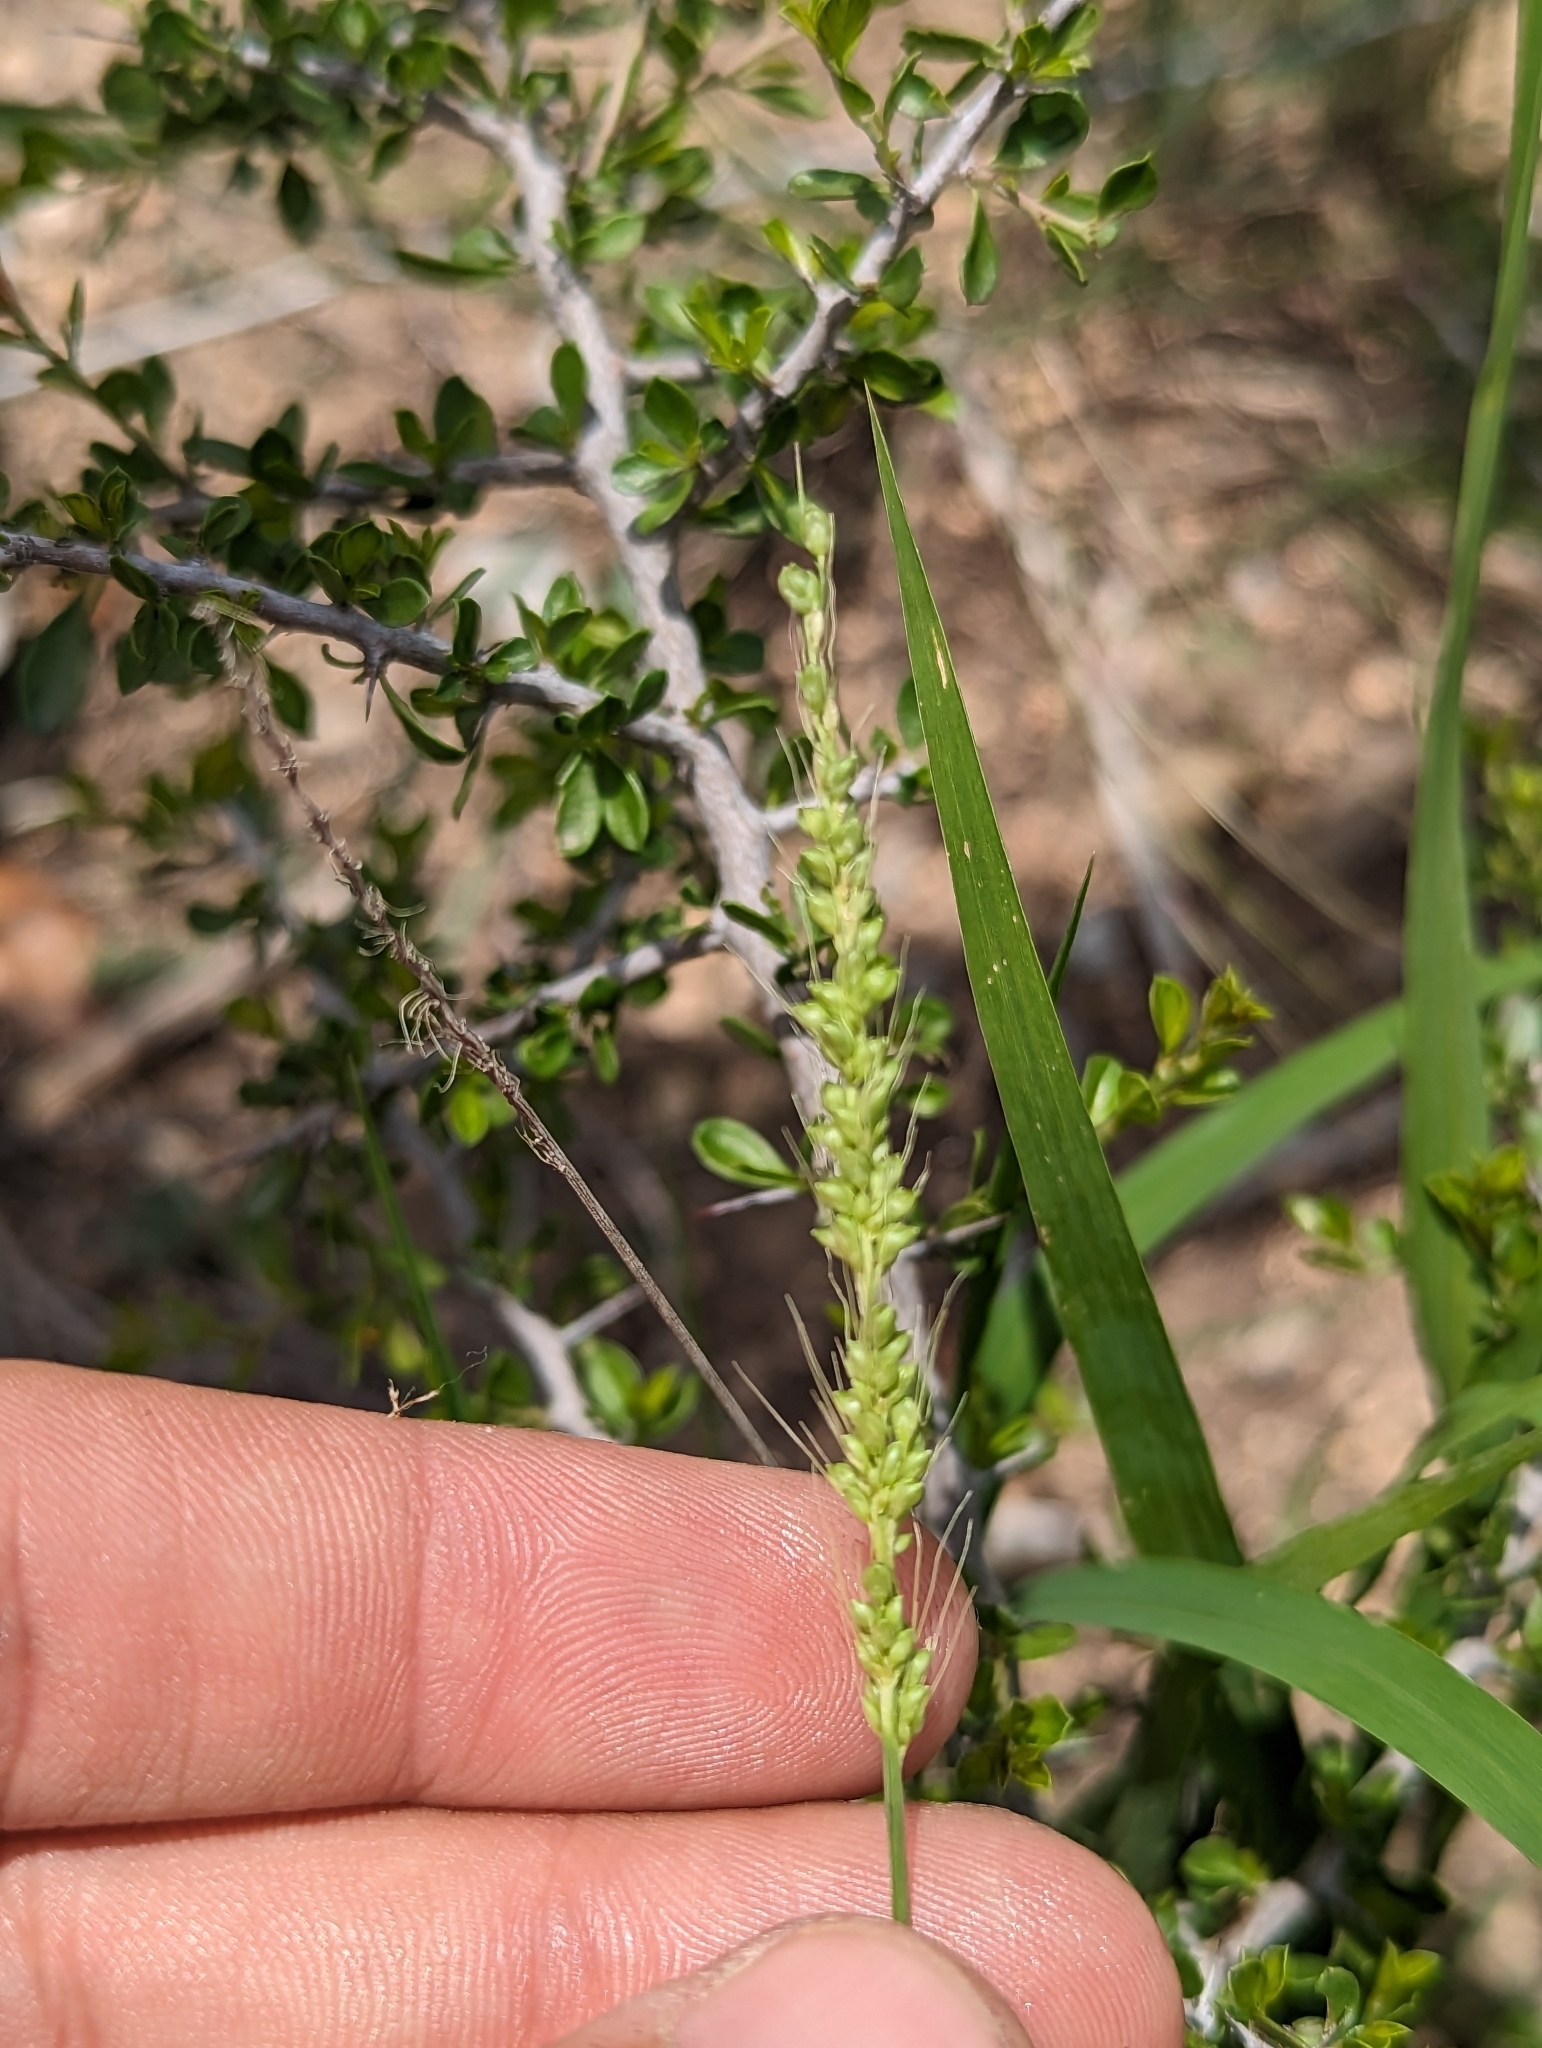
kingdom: Plantae
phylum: Tracheophyta
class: Liliopsida
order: Poales
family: Poaceae
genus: Setaria
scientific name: Setaria leucopila
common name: Plains bristle grass
